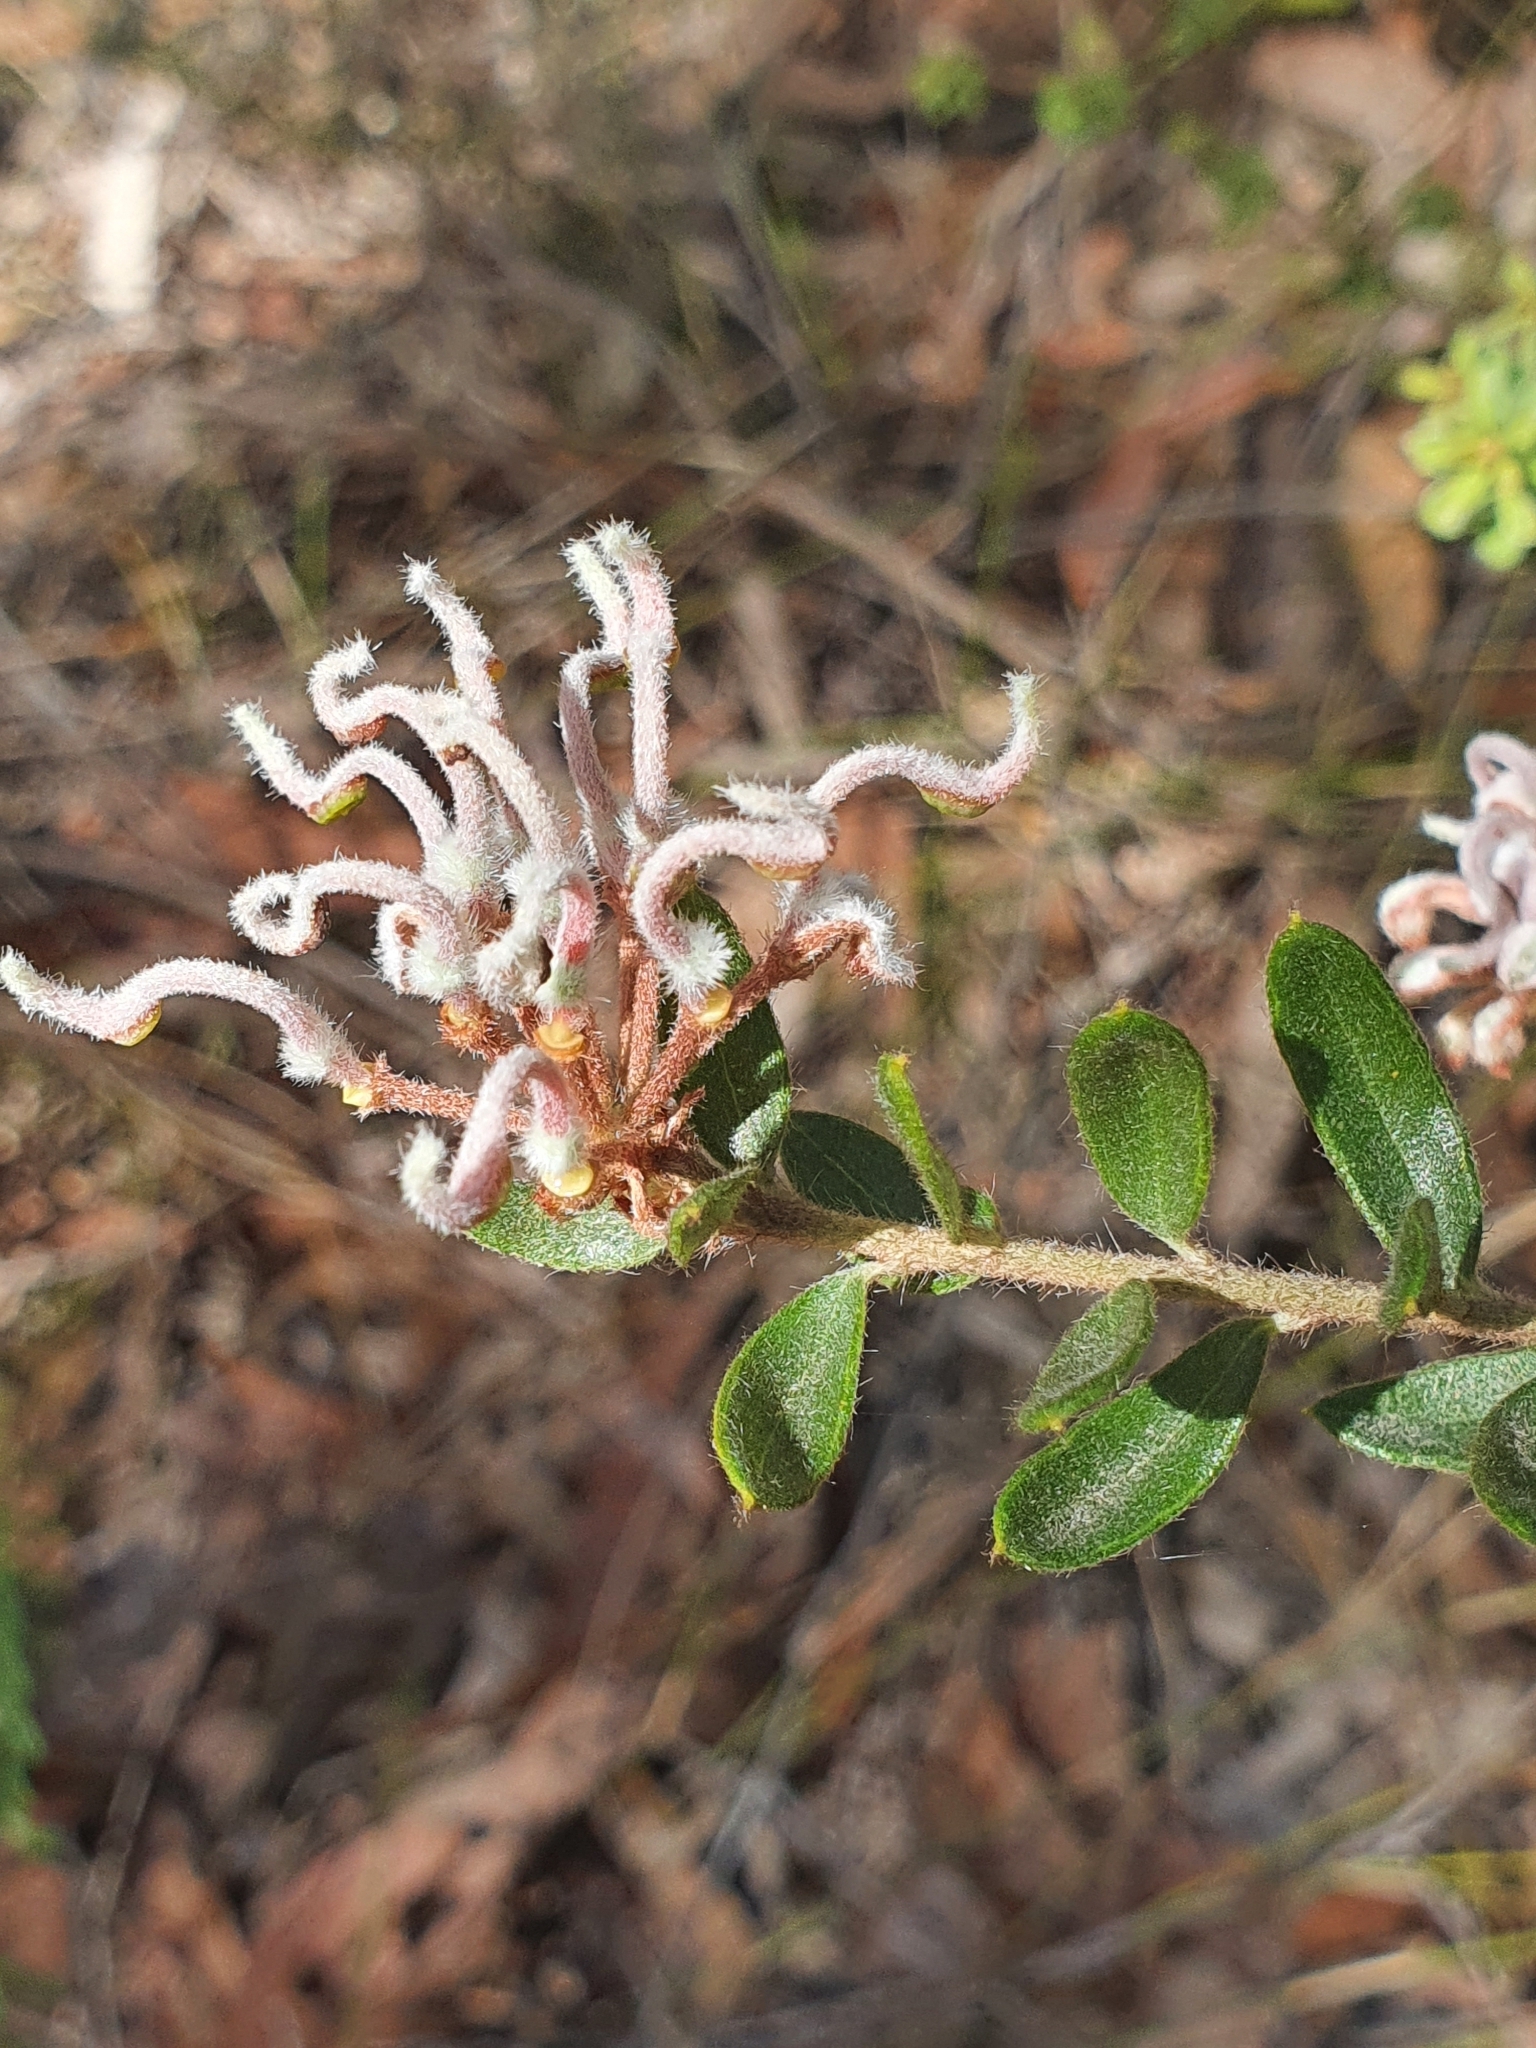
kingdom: Plantae
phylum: Tracheophyta
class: Magnoliopsida
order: Proteales
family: Proteaceae
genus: Grevillea
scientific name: Grevillea buxifolia
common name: Grey spiderflower
